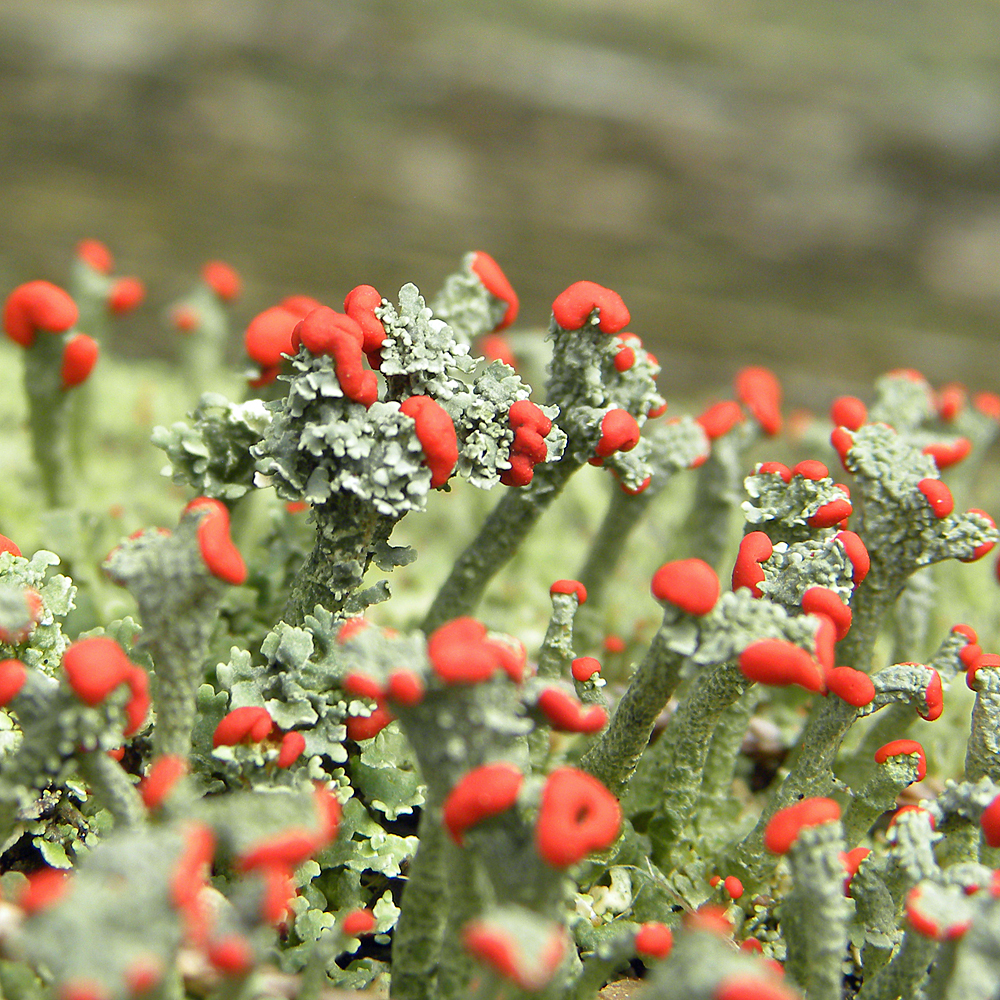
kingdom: Fungi
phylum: Ascomycota
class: Lecanoromycetes
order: Lecanorales
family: Cladoniaceae
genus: Cladonia
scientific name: Cladonia cristatella
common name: British soldier lichen
